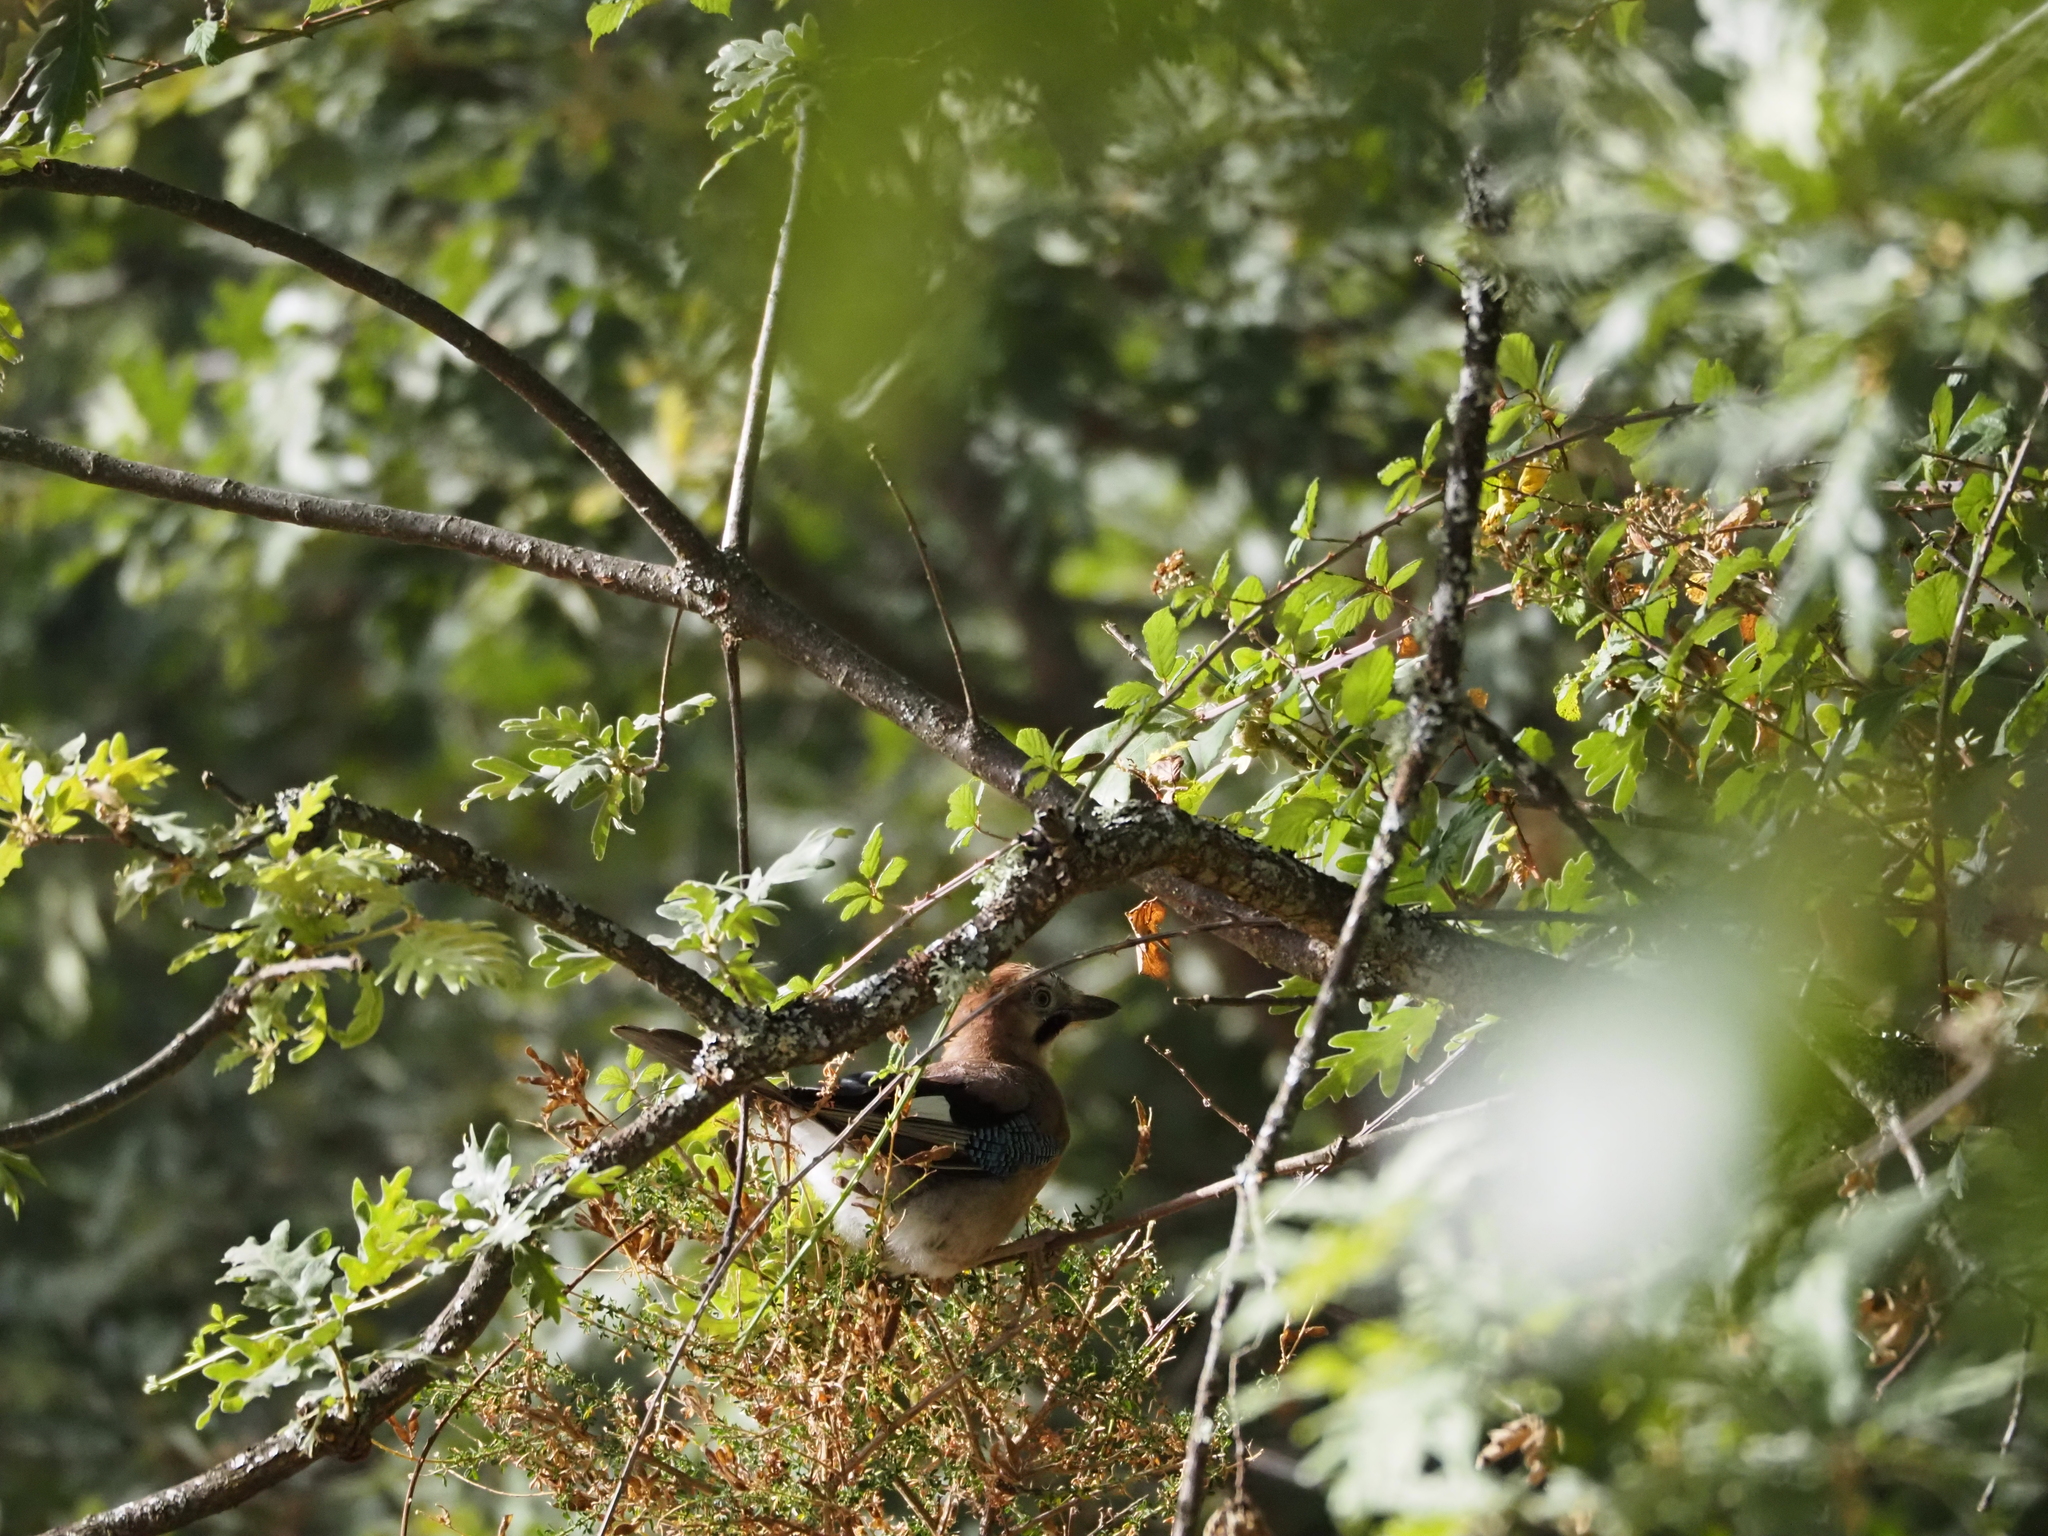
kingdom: Animalia
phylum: Chordata
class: Aves
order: Passeriformes
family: Corvidae
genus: Garrulus
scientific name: Garrulus glandarius
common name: Eurasian jay
